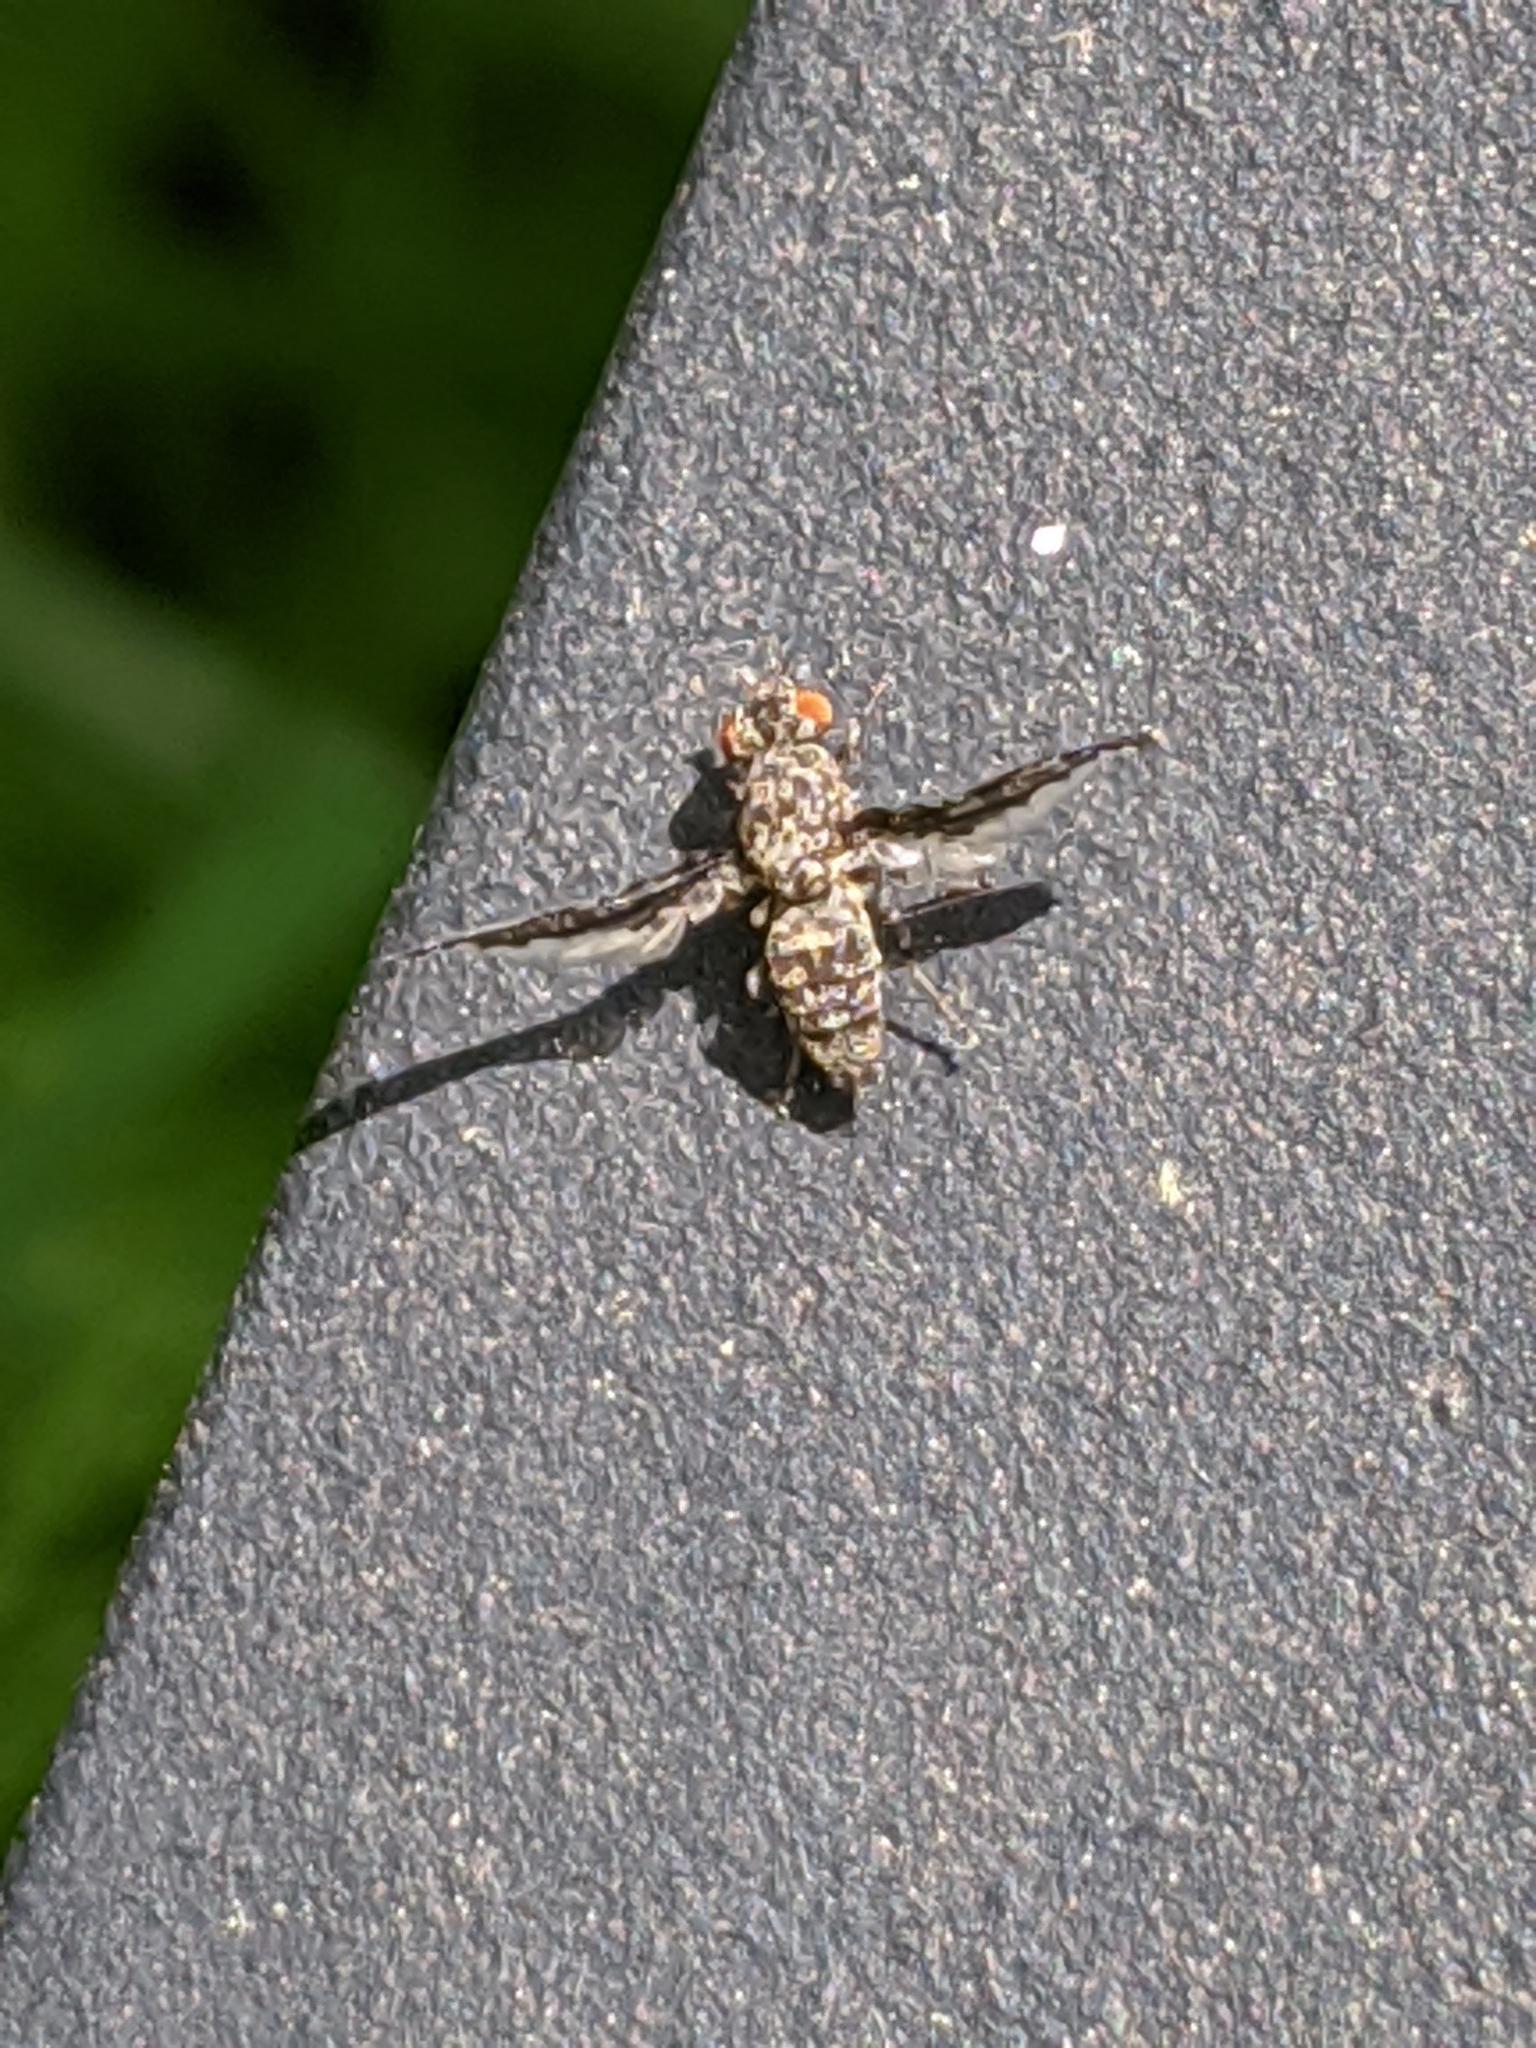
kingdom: Animalia
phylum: Arthropoda
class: Insecta
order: Diptera
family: Ulidiidae
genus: Callopistromyia
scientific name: Callopistromyia strigula
